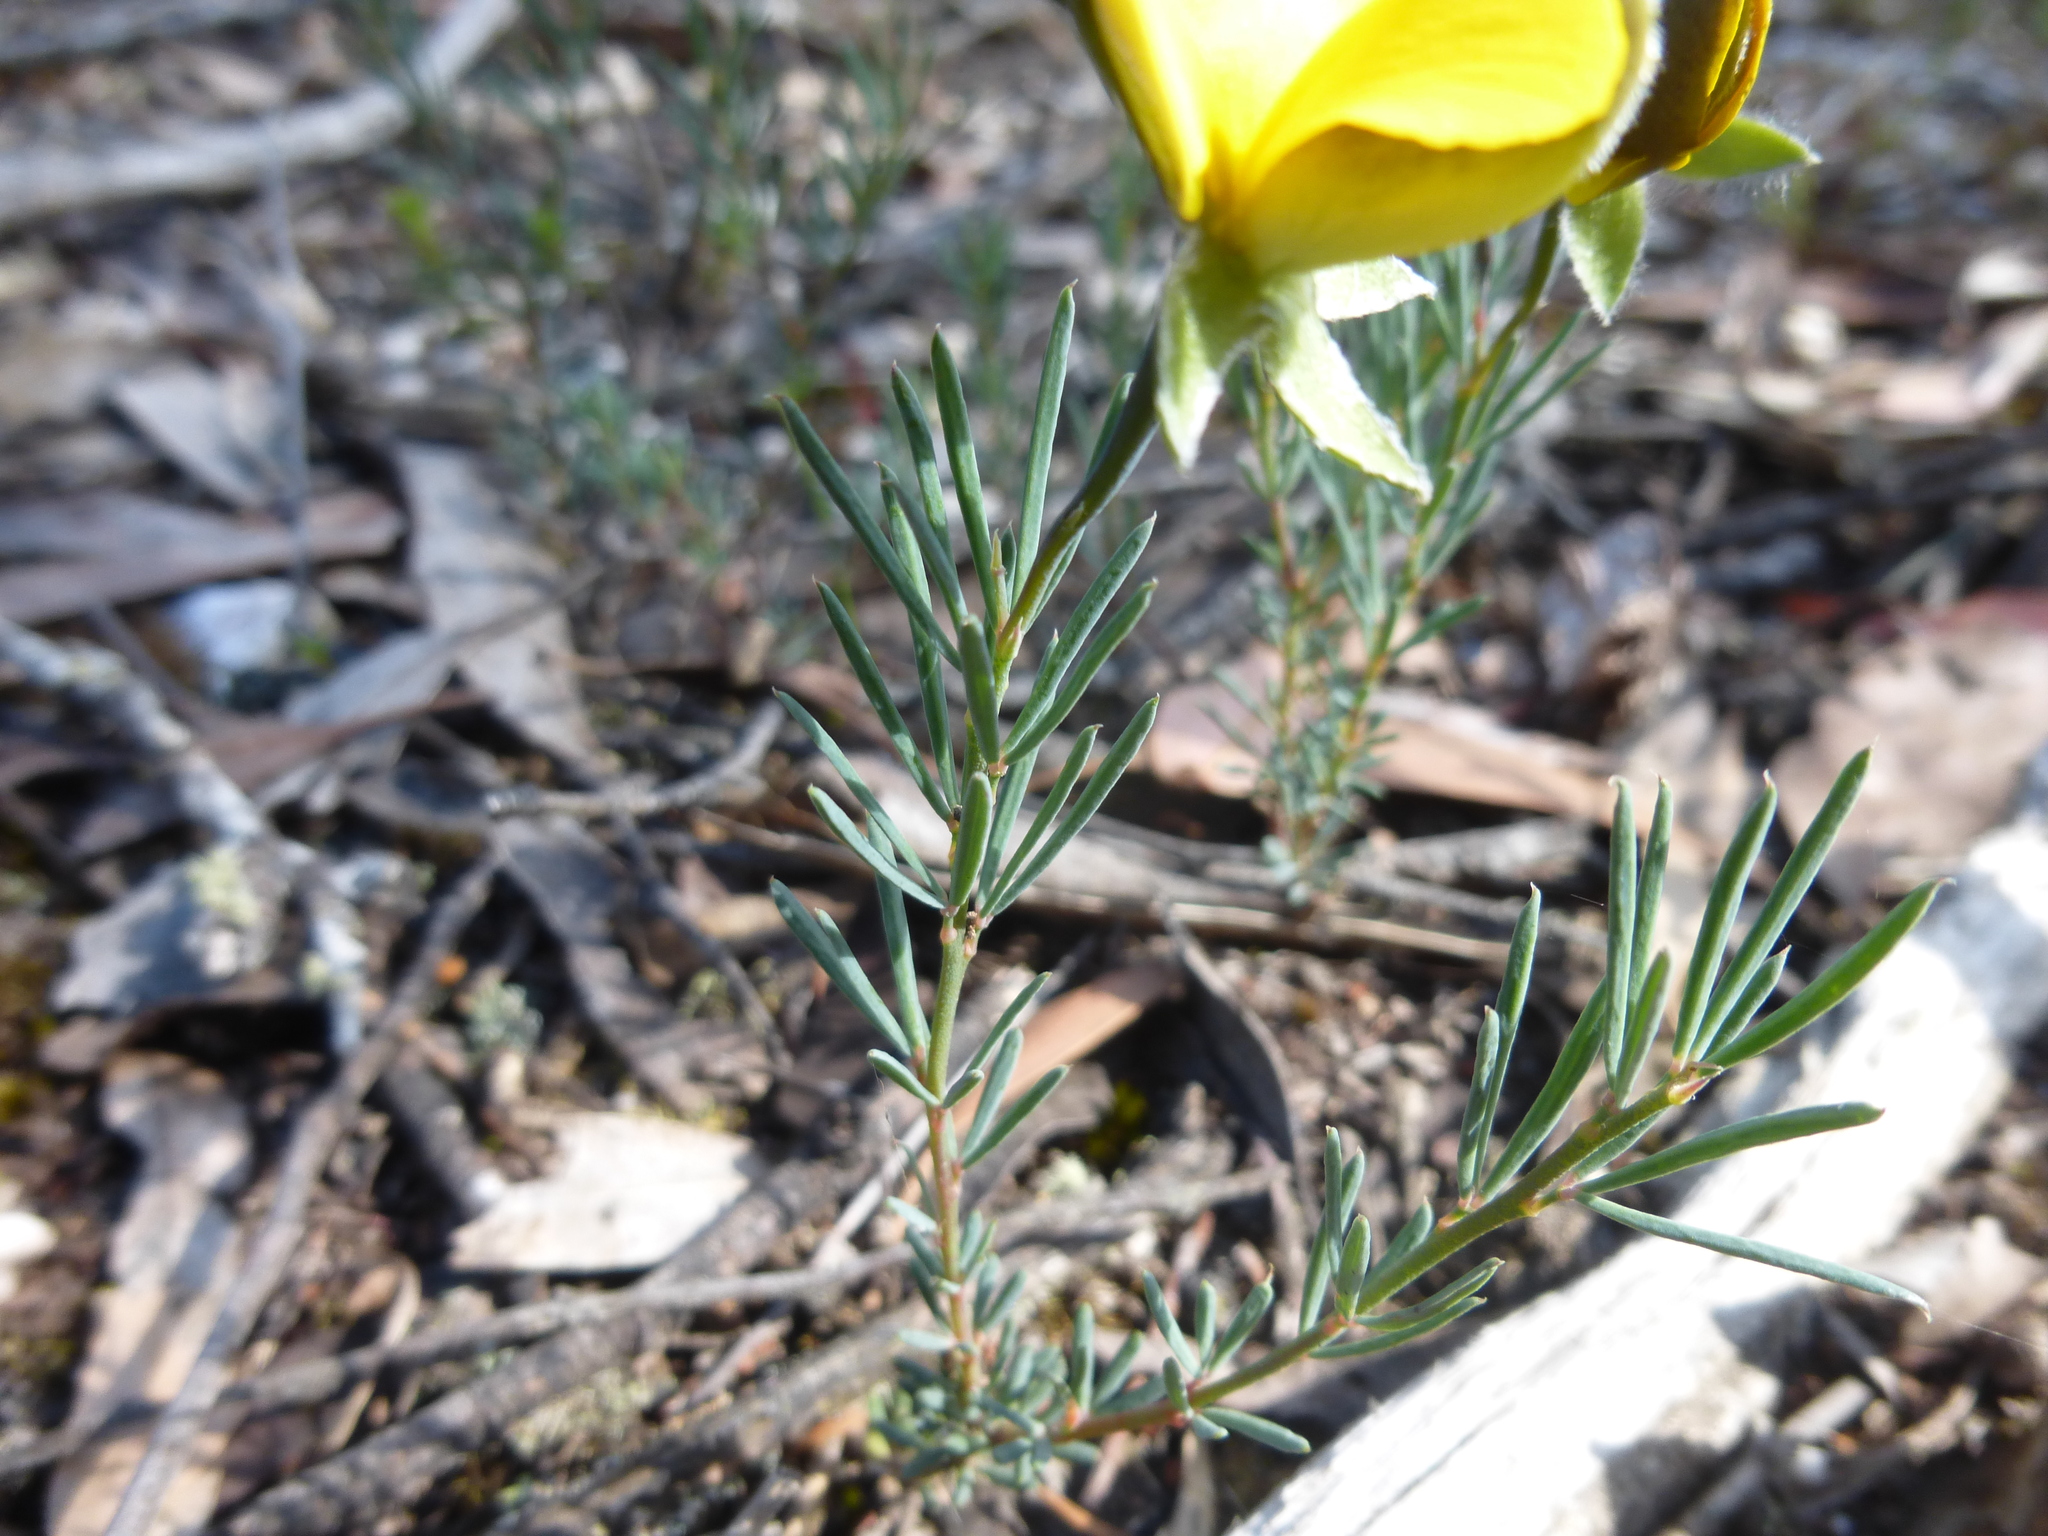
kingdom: Plantae
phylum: Tracheophyta
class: Magnoliopsida
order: Fabales
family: Fabaceae
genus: Gompholobium
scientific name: Gompholobium huegelii
